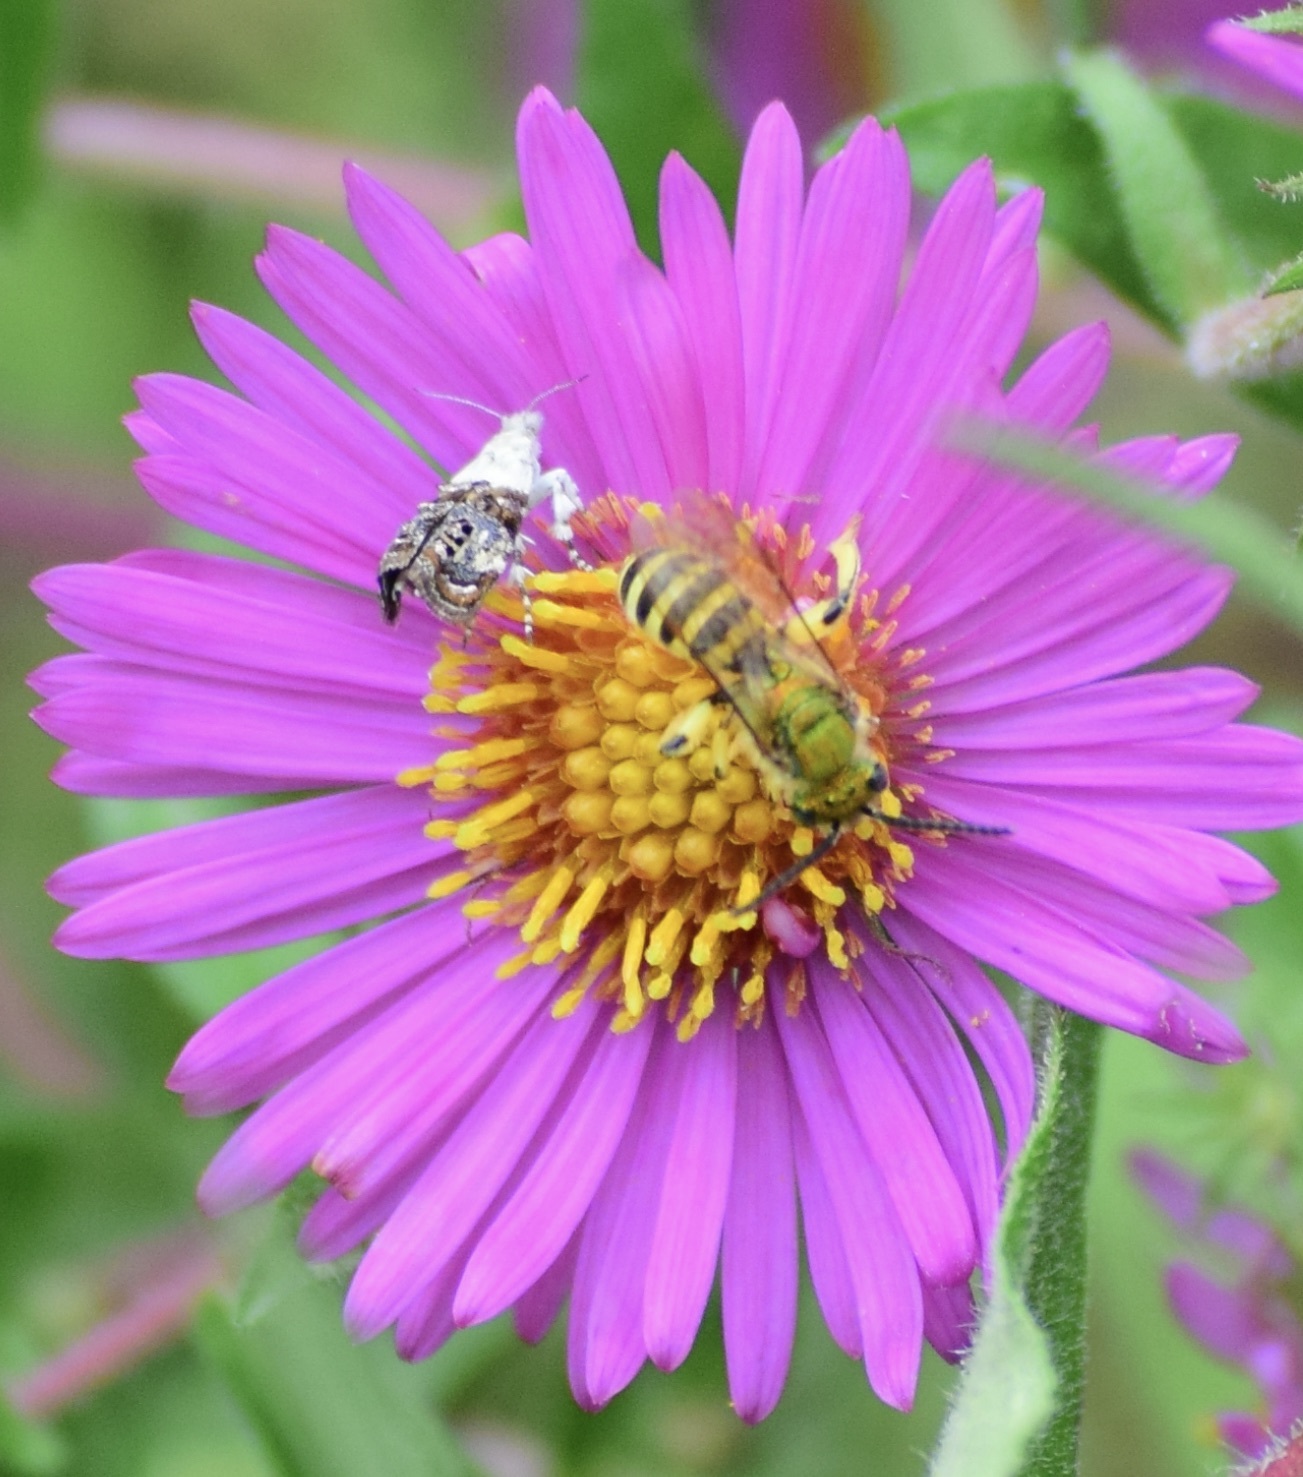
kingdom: Animalia
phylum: Arthropoda
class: Insecta
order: Lepidoptera
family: Noctuidae
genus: Acontia
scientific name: Acontia erastrioides
